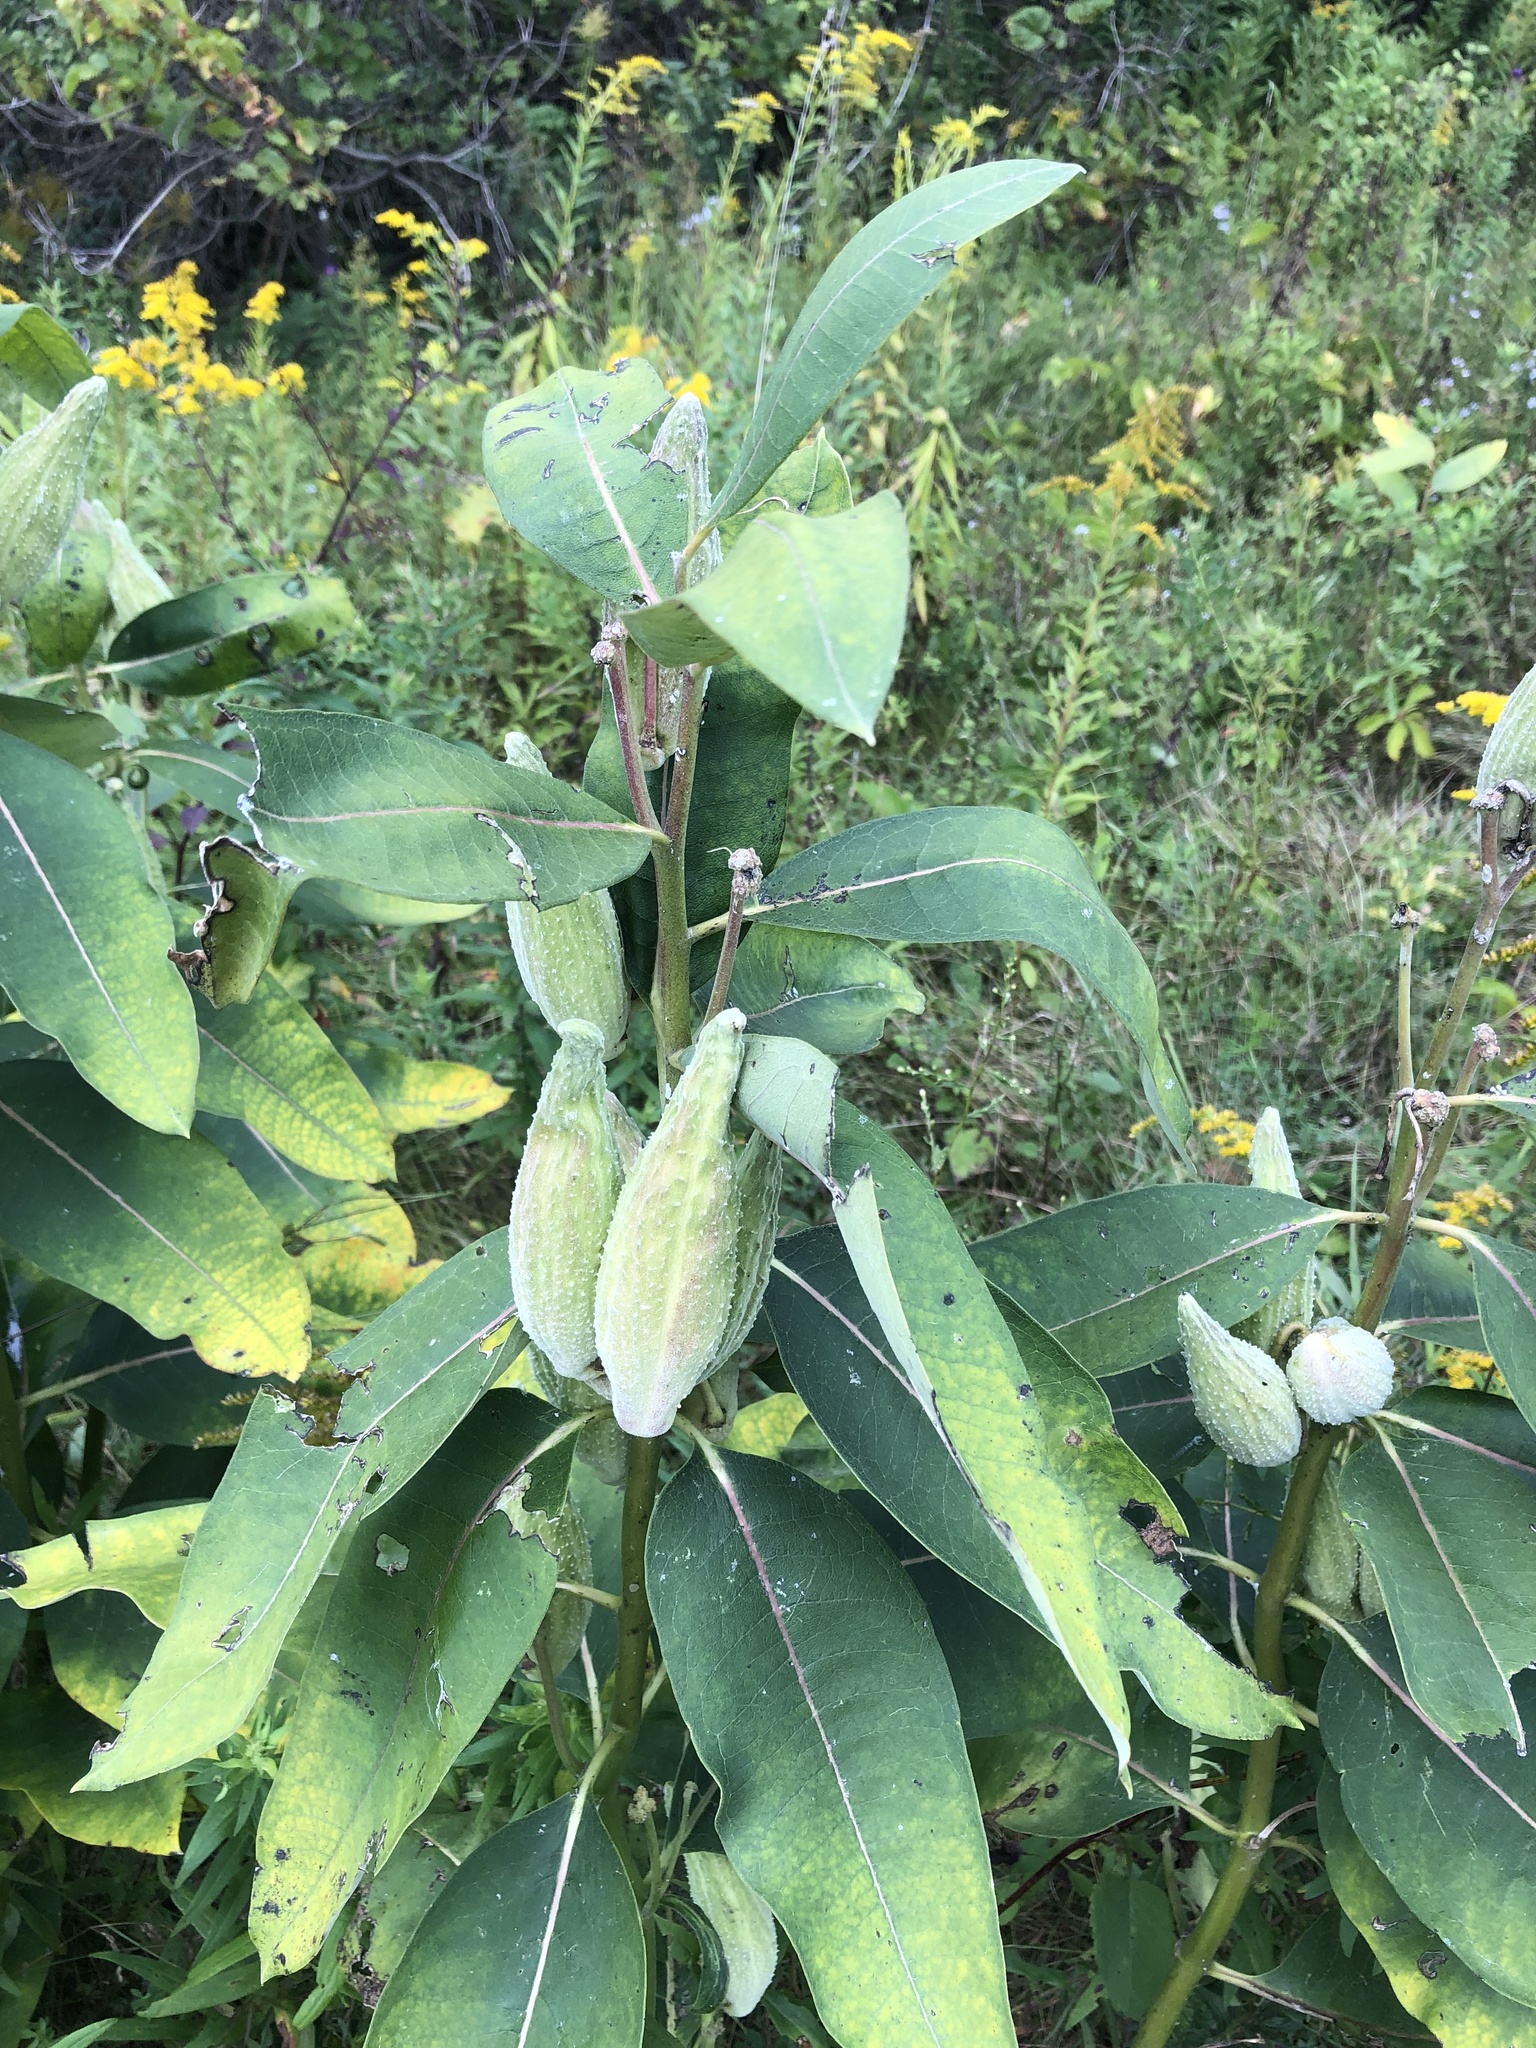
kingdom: Plantae
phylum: Tracheophyta
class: Magnoliopsida
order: Gentianales
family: Apocynaceae
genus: Asclepias
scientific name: Asclepias syriaca
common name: Common milkweed
